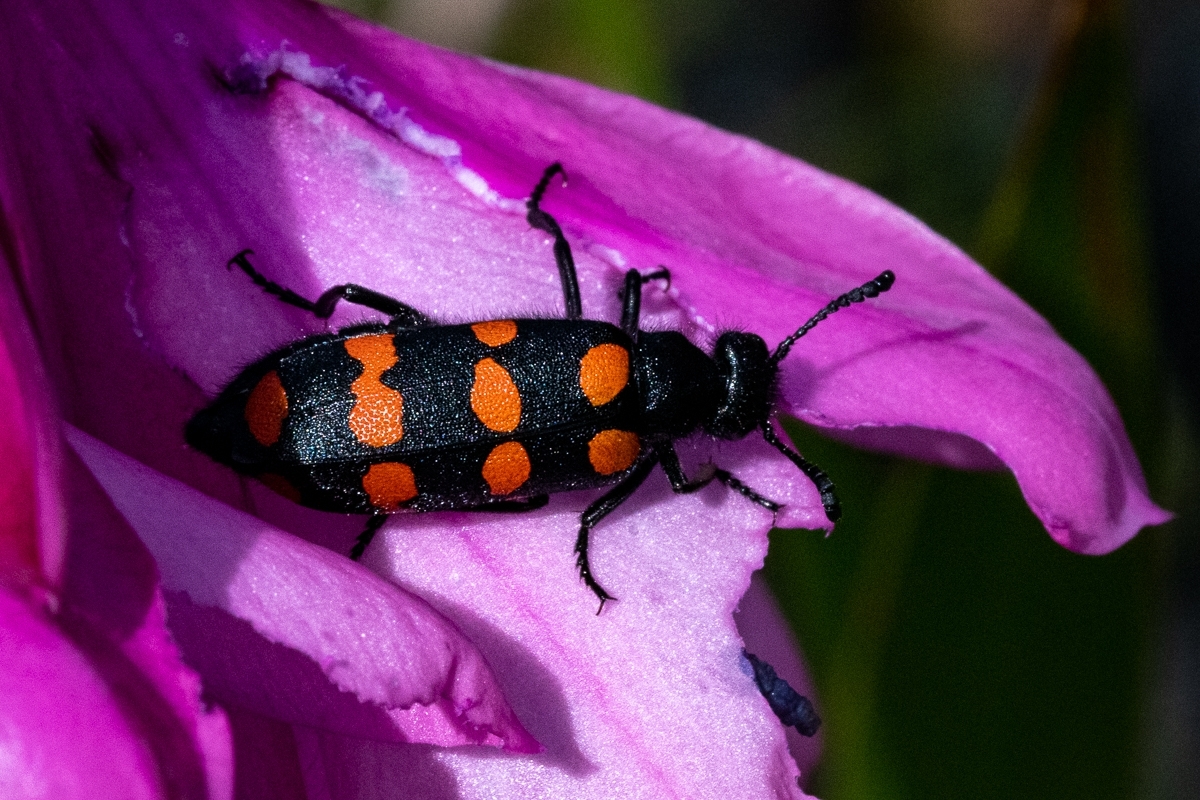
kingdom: Animalia
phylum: Arthropoda
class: Insecta
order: Coleoptera
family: Meloidae
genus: Ceroctis
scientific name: Ceroctis gyllenhalli
